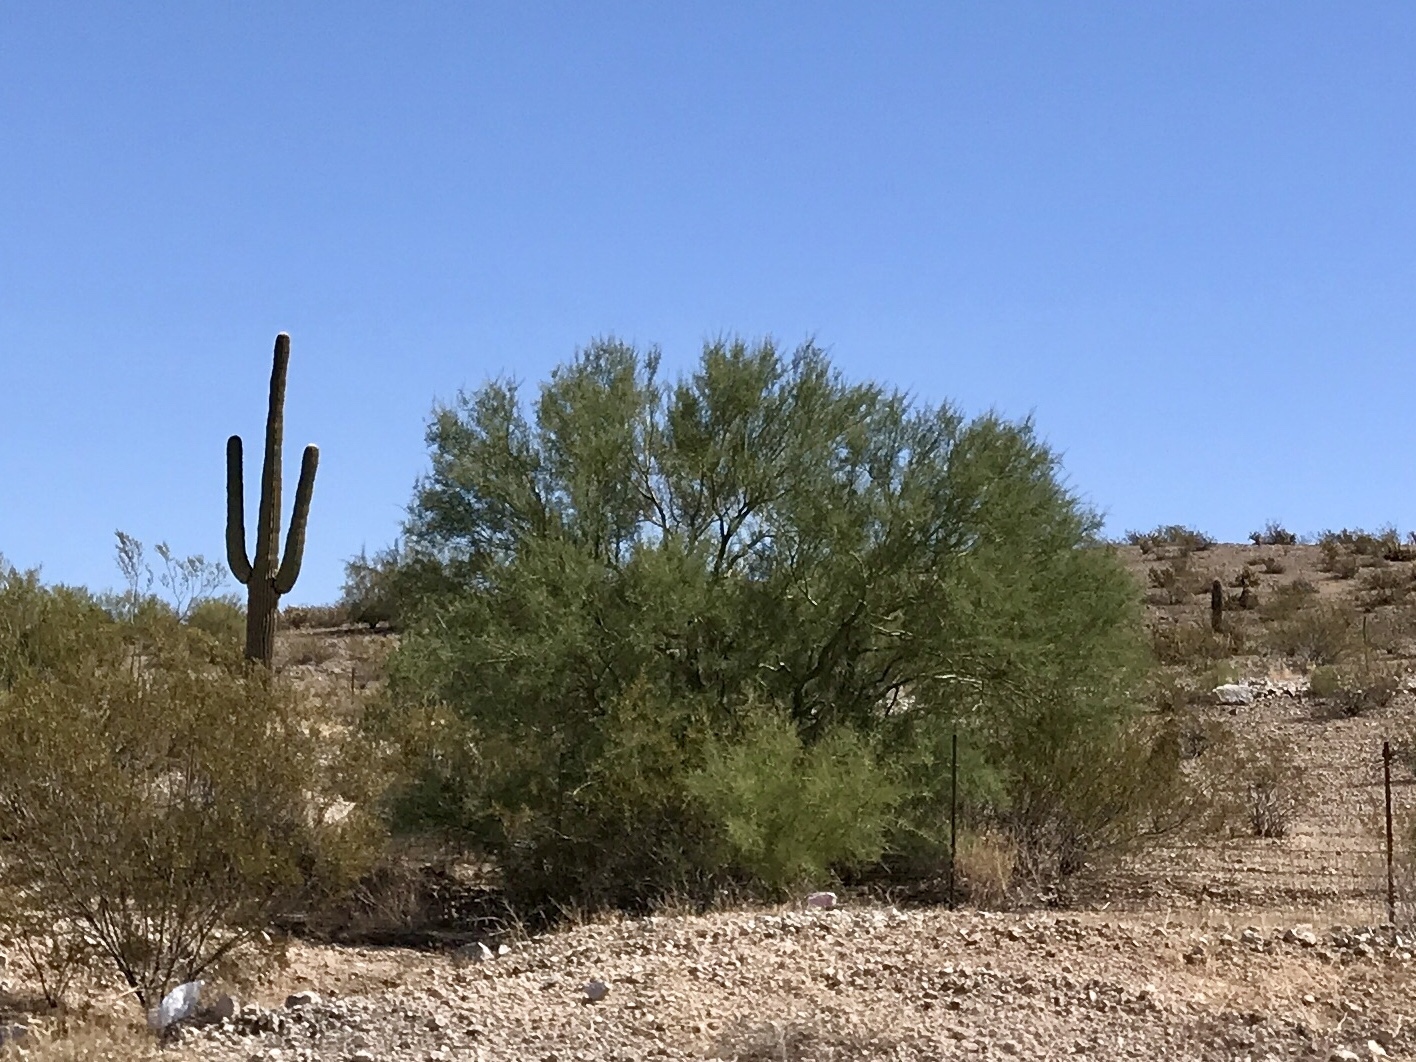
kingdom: Plantae
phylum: Tracheophyta
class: Magnoliopsida
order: Fabales
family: Fabaceae
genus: Parkinsonia
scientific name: Parkinsonia florida
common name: Blue paloverde
